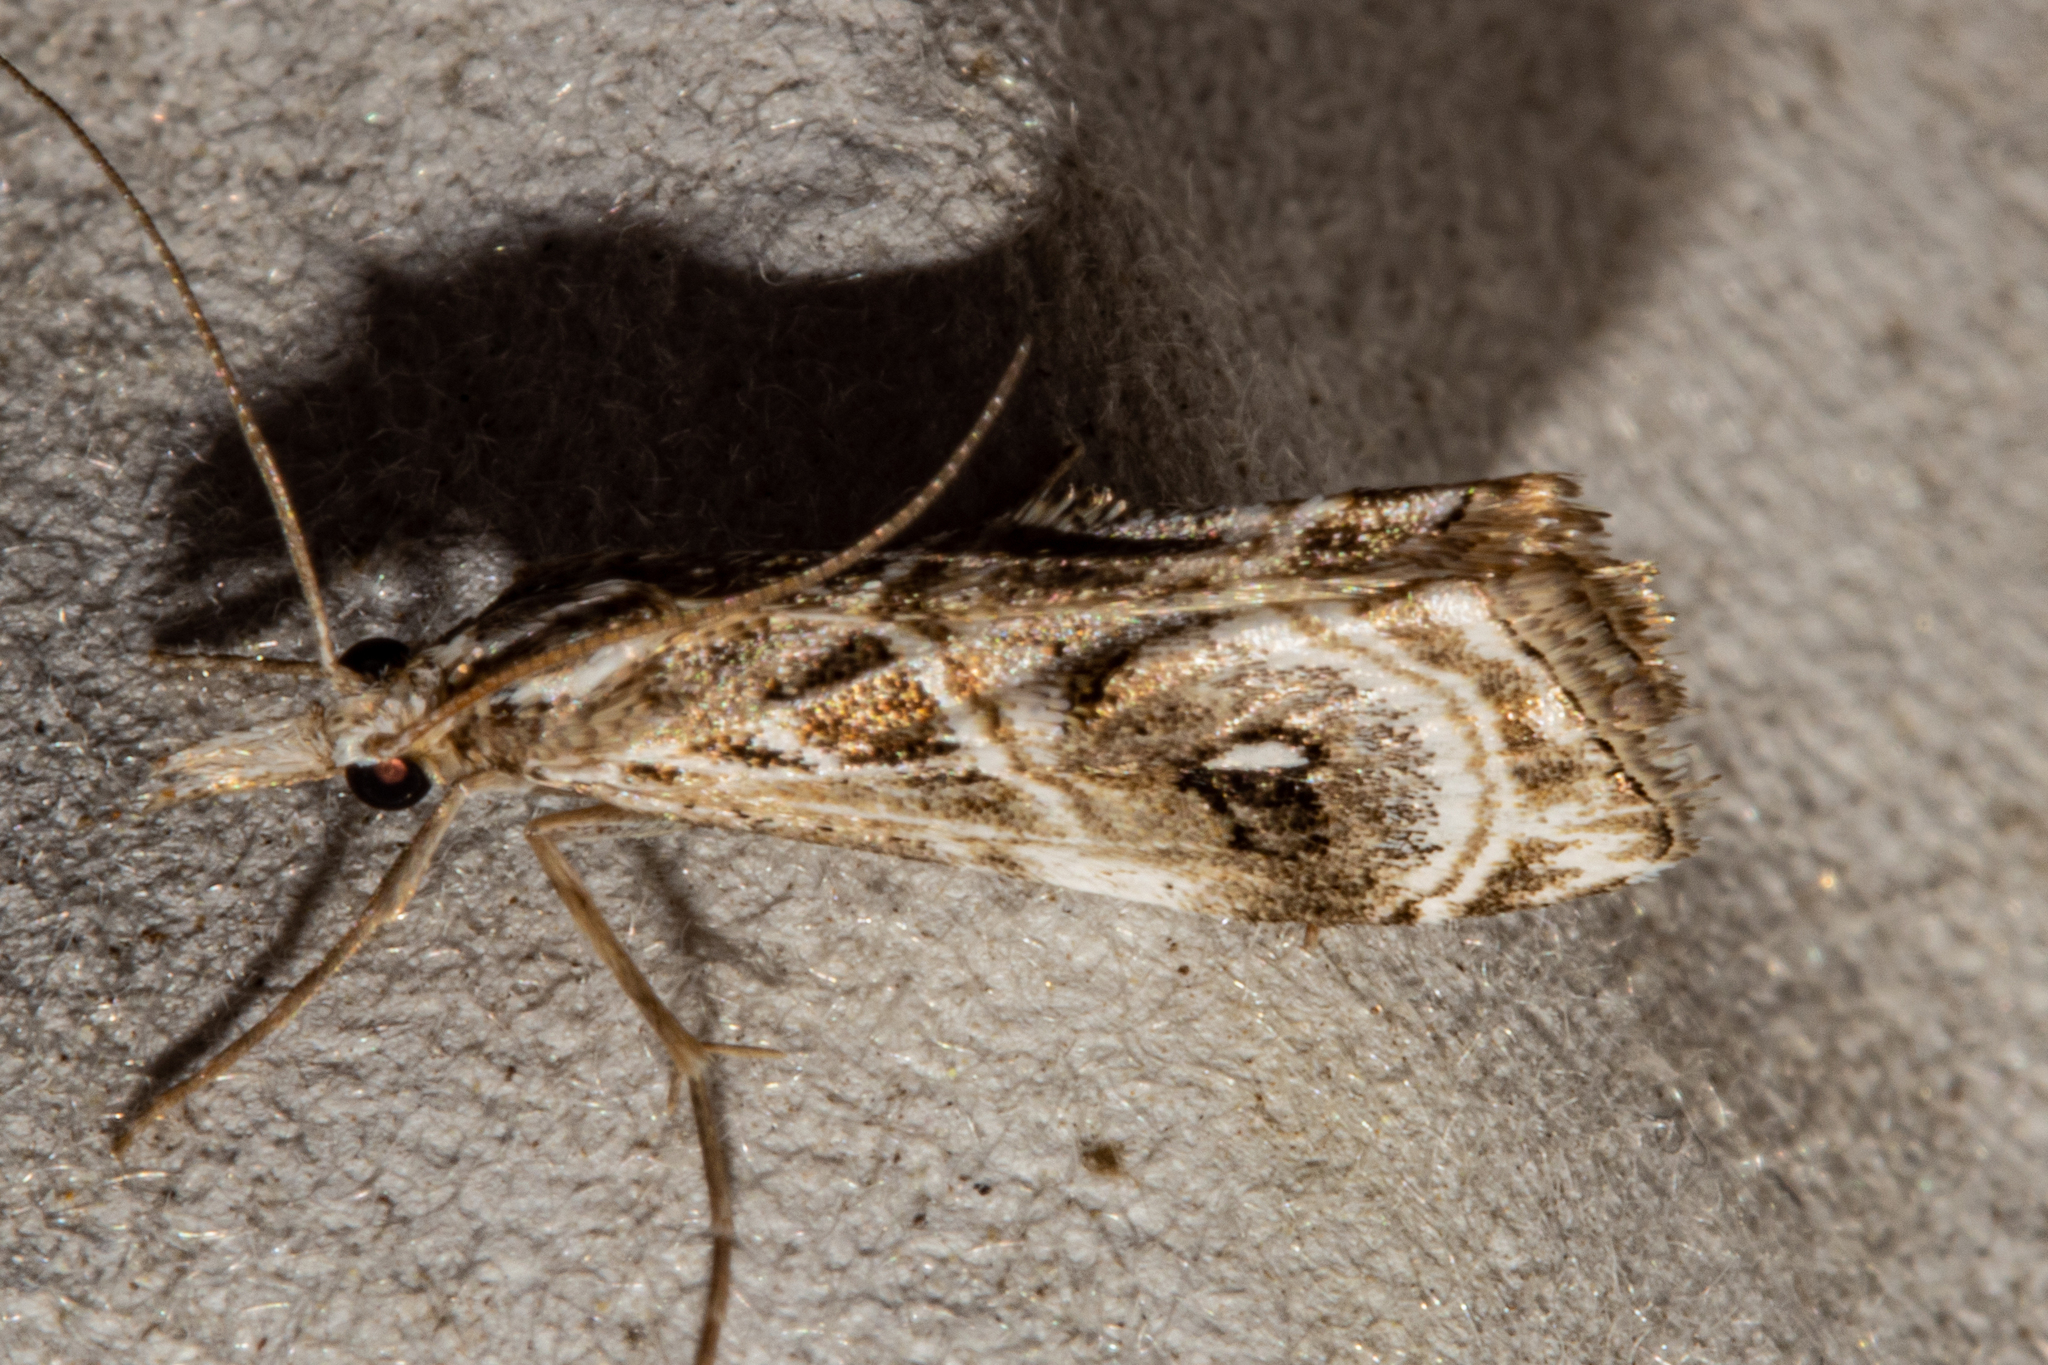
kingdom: Animalia
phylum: Arthropoda
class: Insecta
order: Lepidoptera
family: Crambidae
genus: Gadira
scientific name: Gadira acerella
